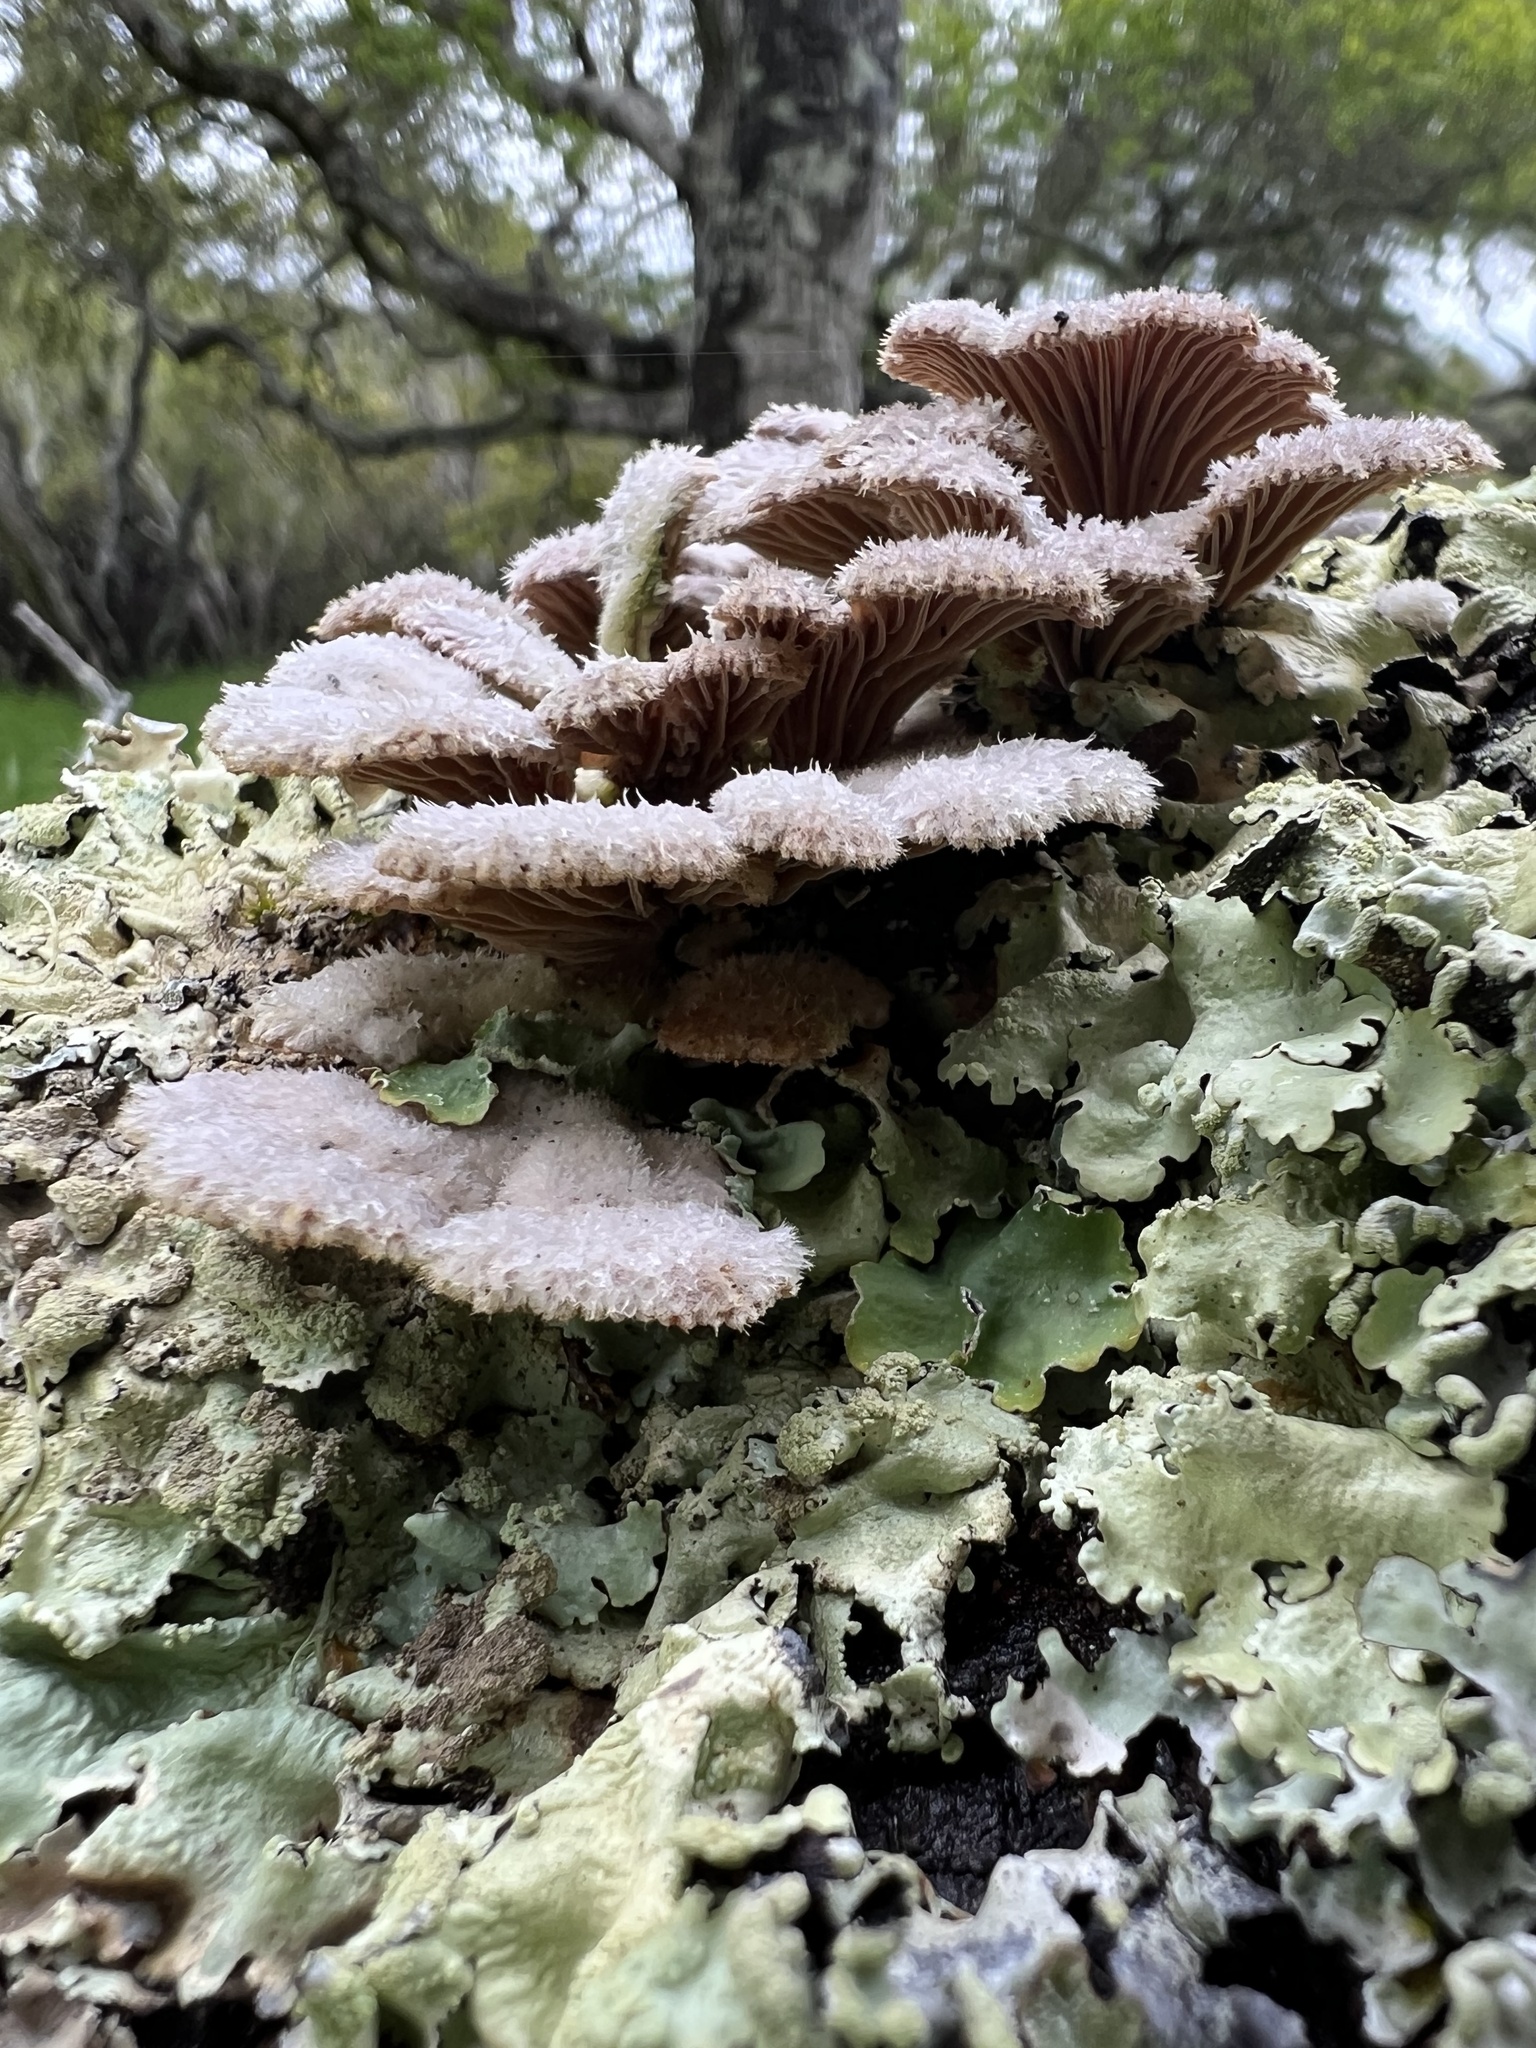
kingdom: Fungi
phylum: Basidiomycota
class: Agaricomycetes
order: Agaricales
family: Schizophyllaceae
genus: Schizophyllum
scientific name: Schizophyllum commune
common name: Common porecrust
